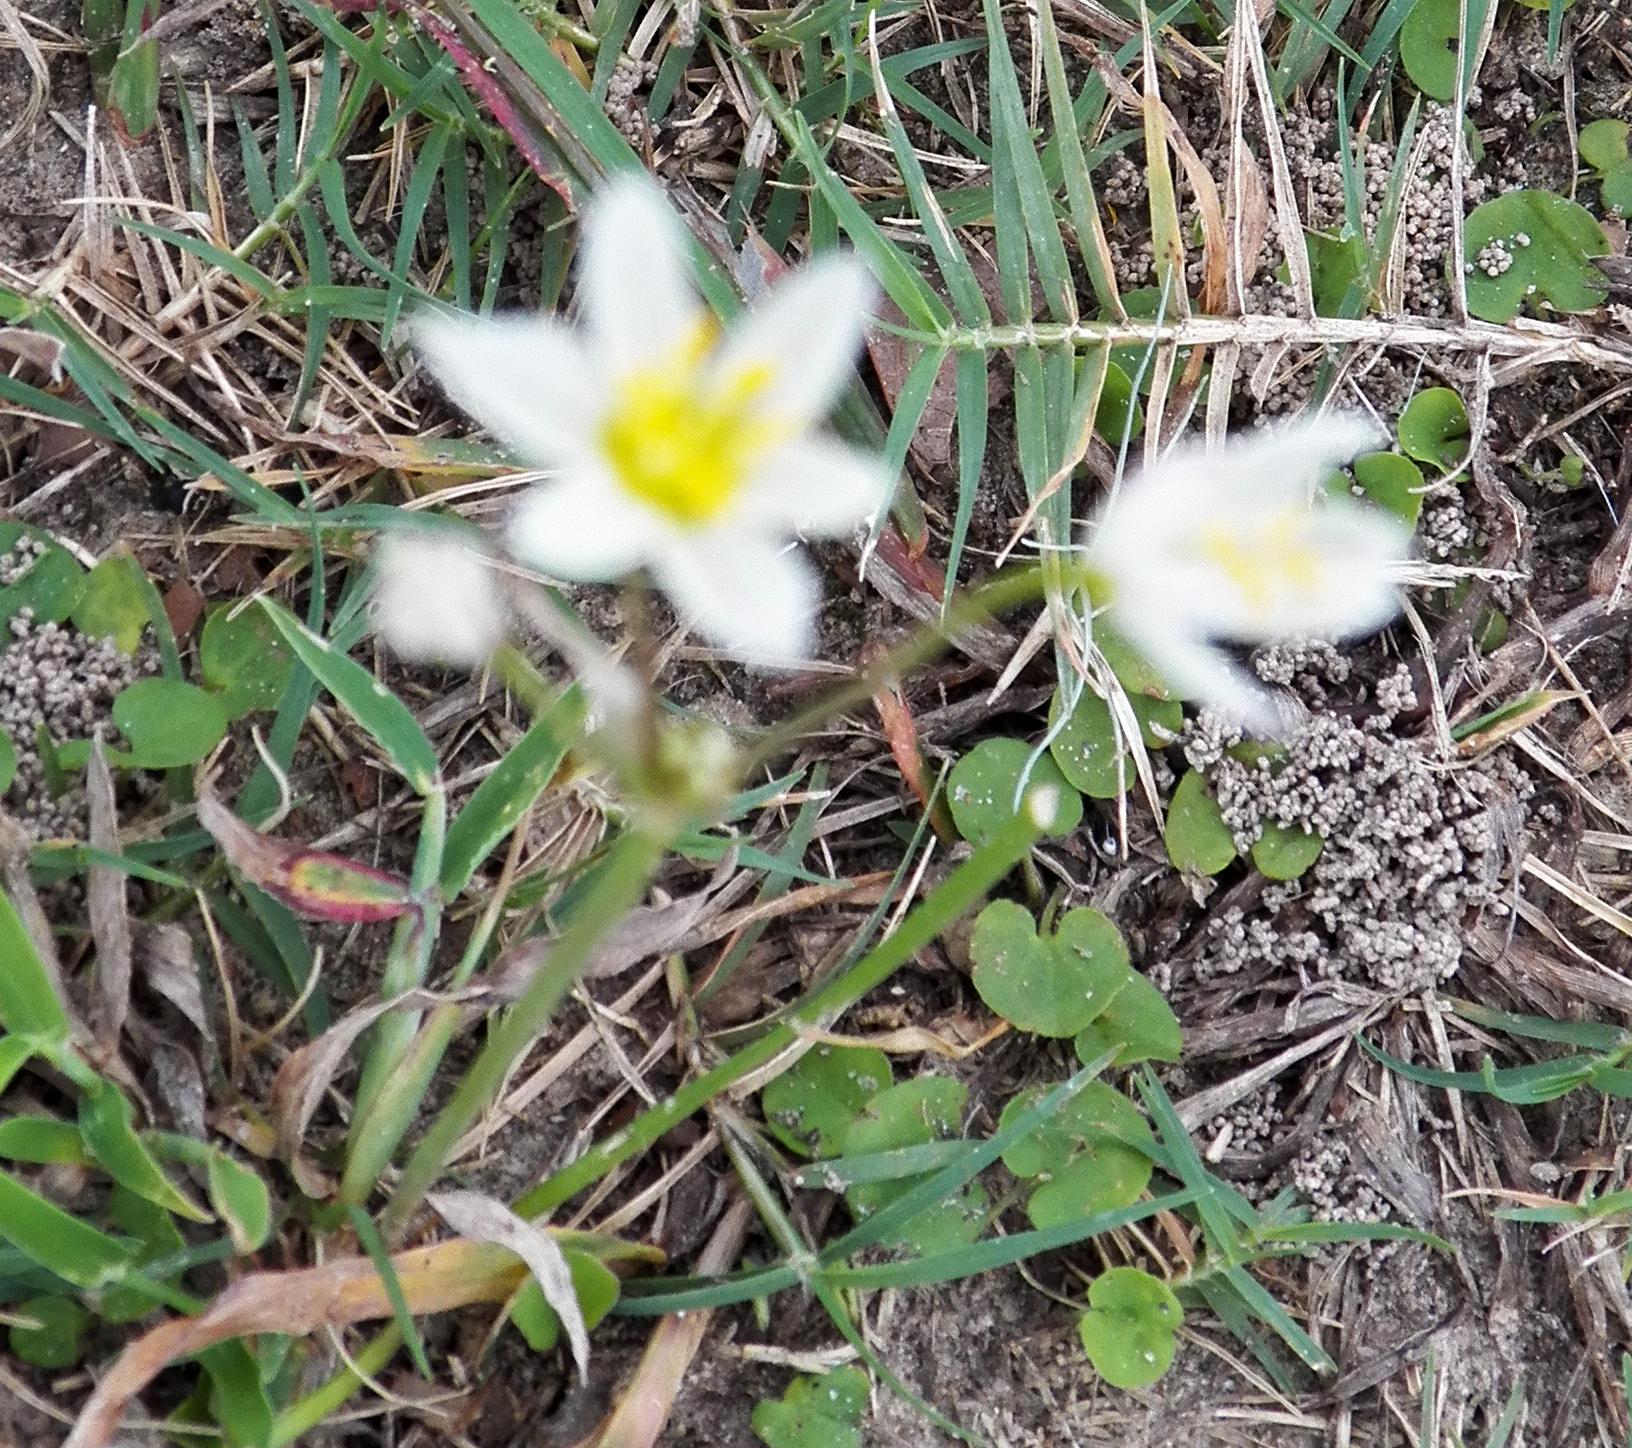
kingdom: Plantae
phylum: Tracheophyta
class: Liliopsida
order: Asparagales
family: Amaryllidaceae
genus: Nothoscordum
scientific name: Nothoscordum bivalve
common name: Crow-poison
